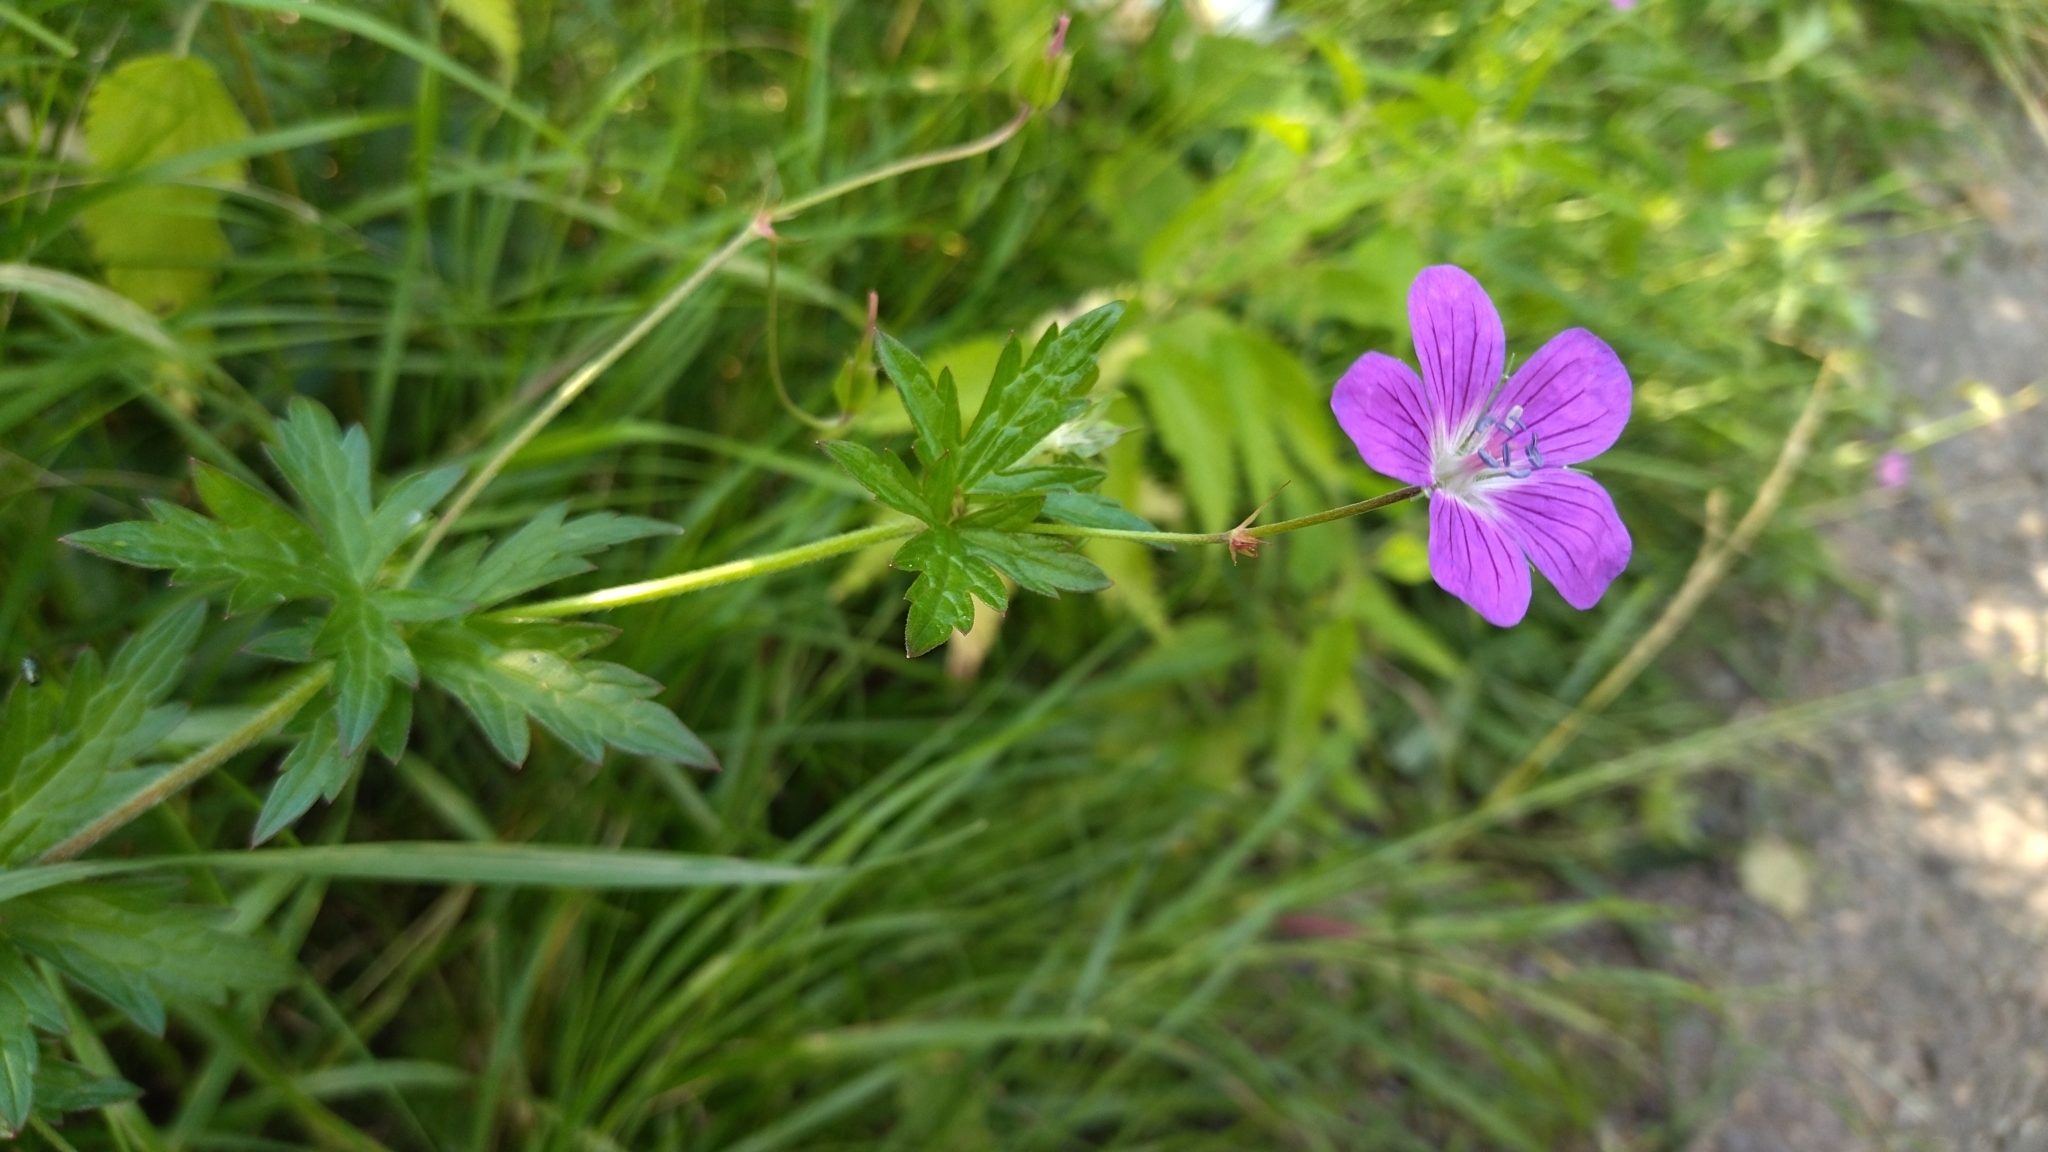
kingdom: Plantae
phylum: Tracheophyta
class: Magnoliopsida
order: Geraniales
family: Geraniaceae
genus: Geranium
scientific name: Geranium palustre
